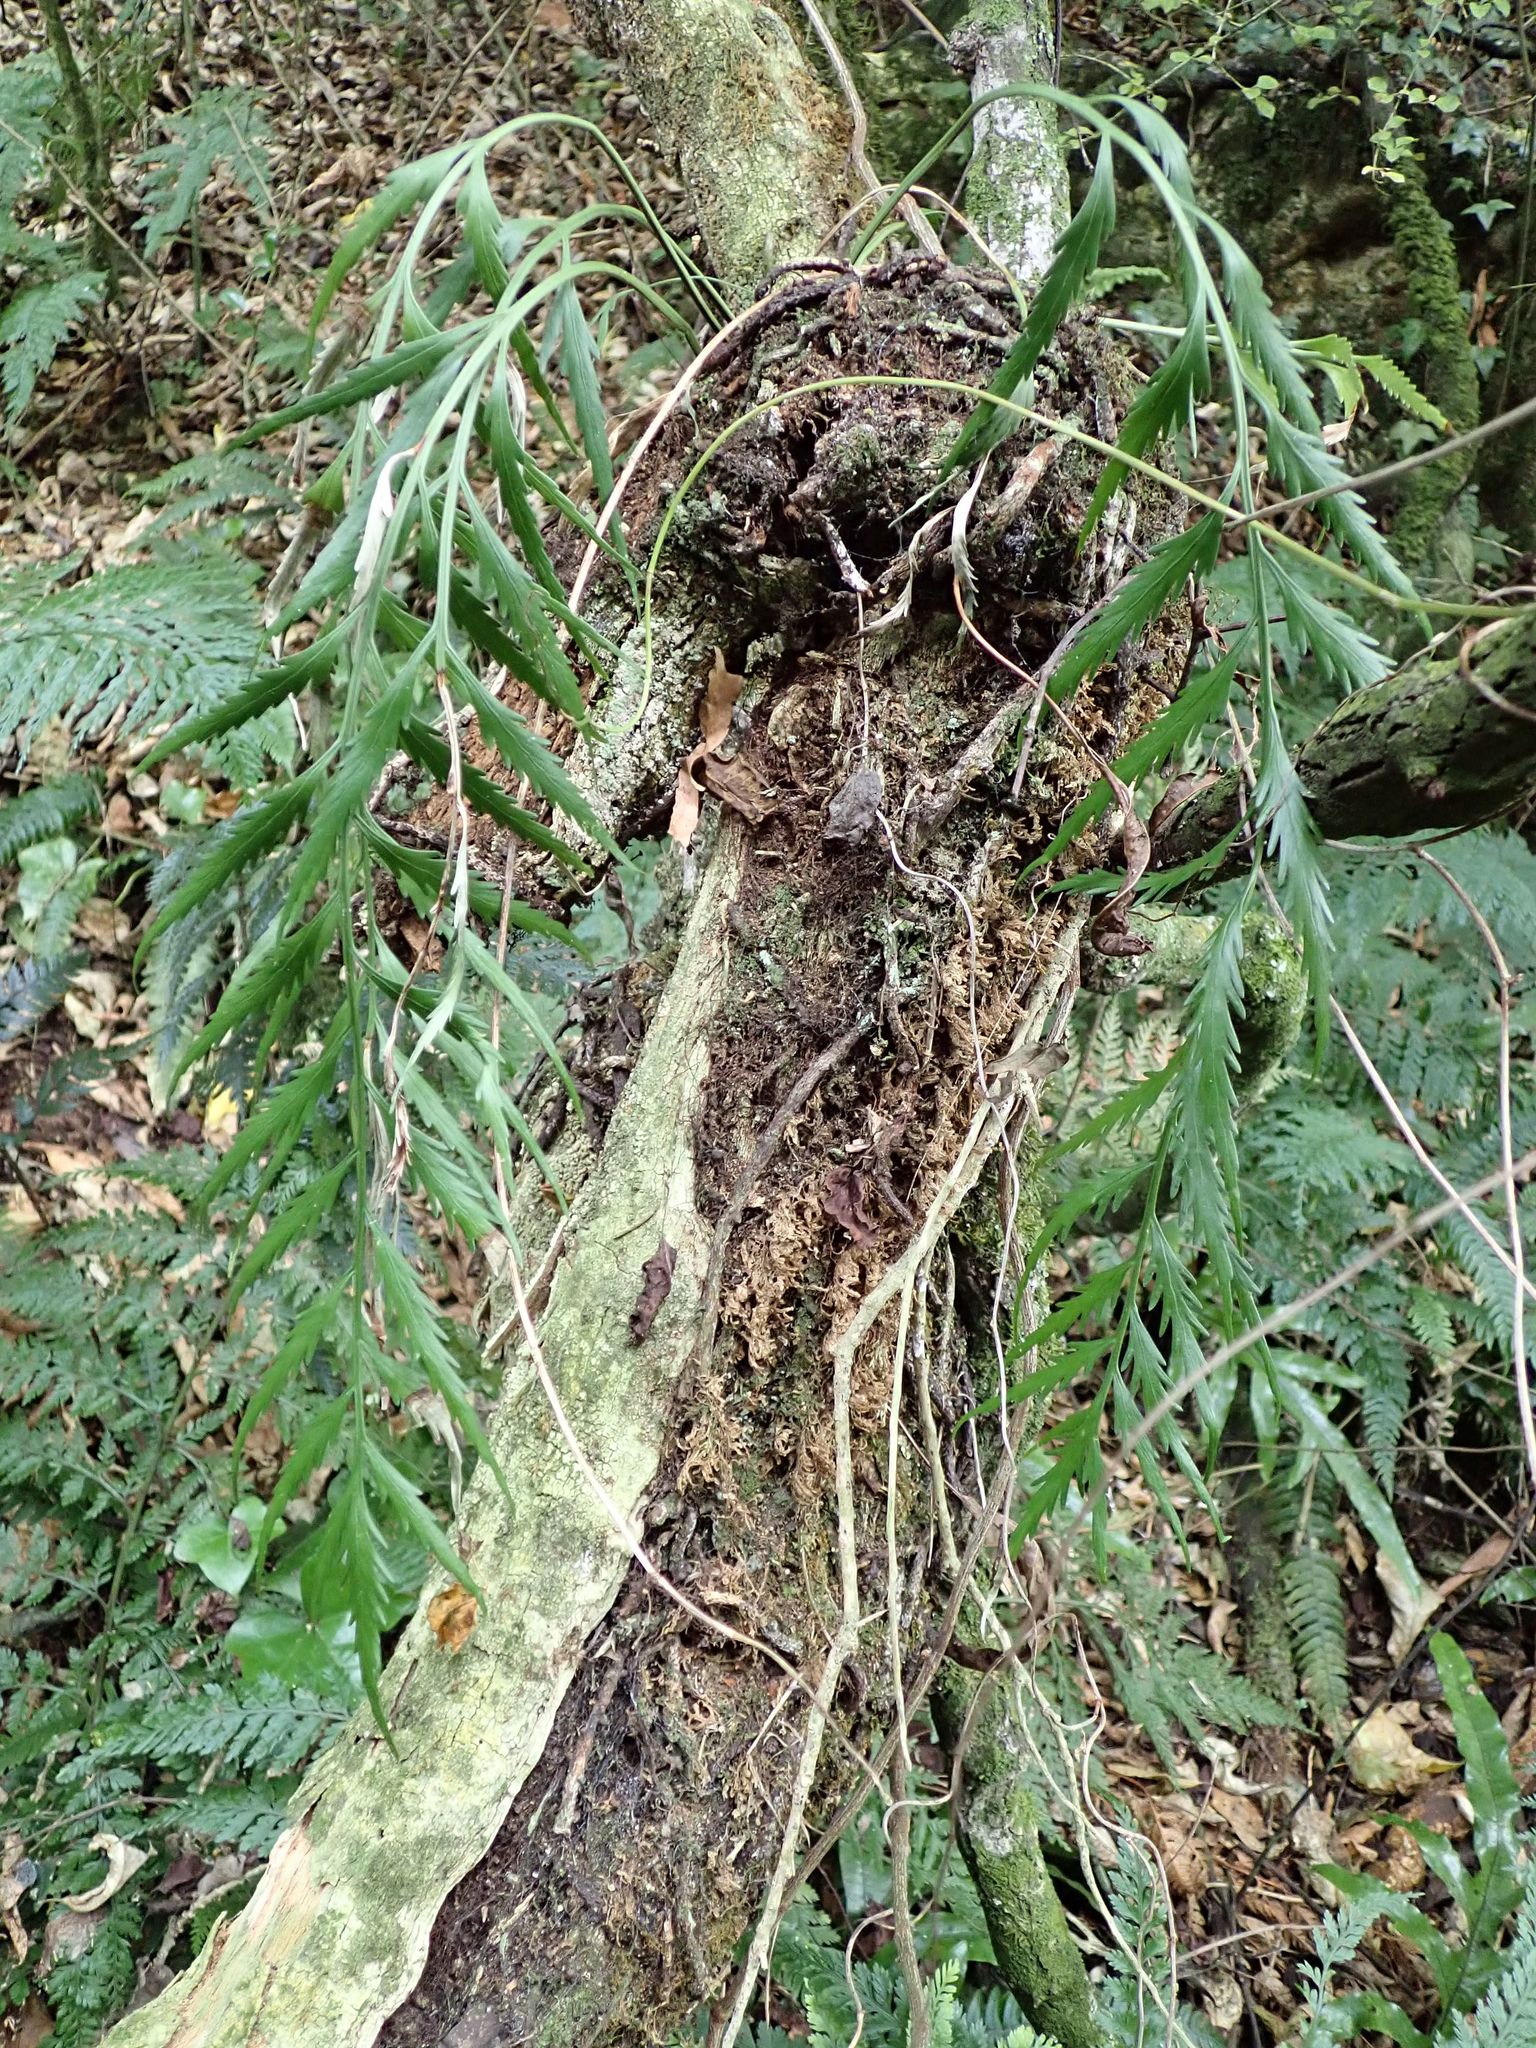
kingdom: Plantae
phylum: Tracheophyta
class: Polypodiopsida
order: Polypodiales
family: Aspleniaceae
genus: Asplenium
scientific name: Asplenium flaccidum
